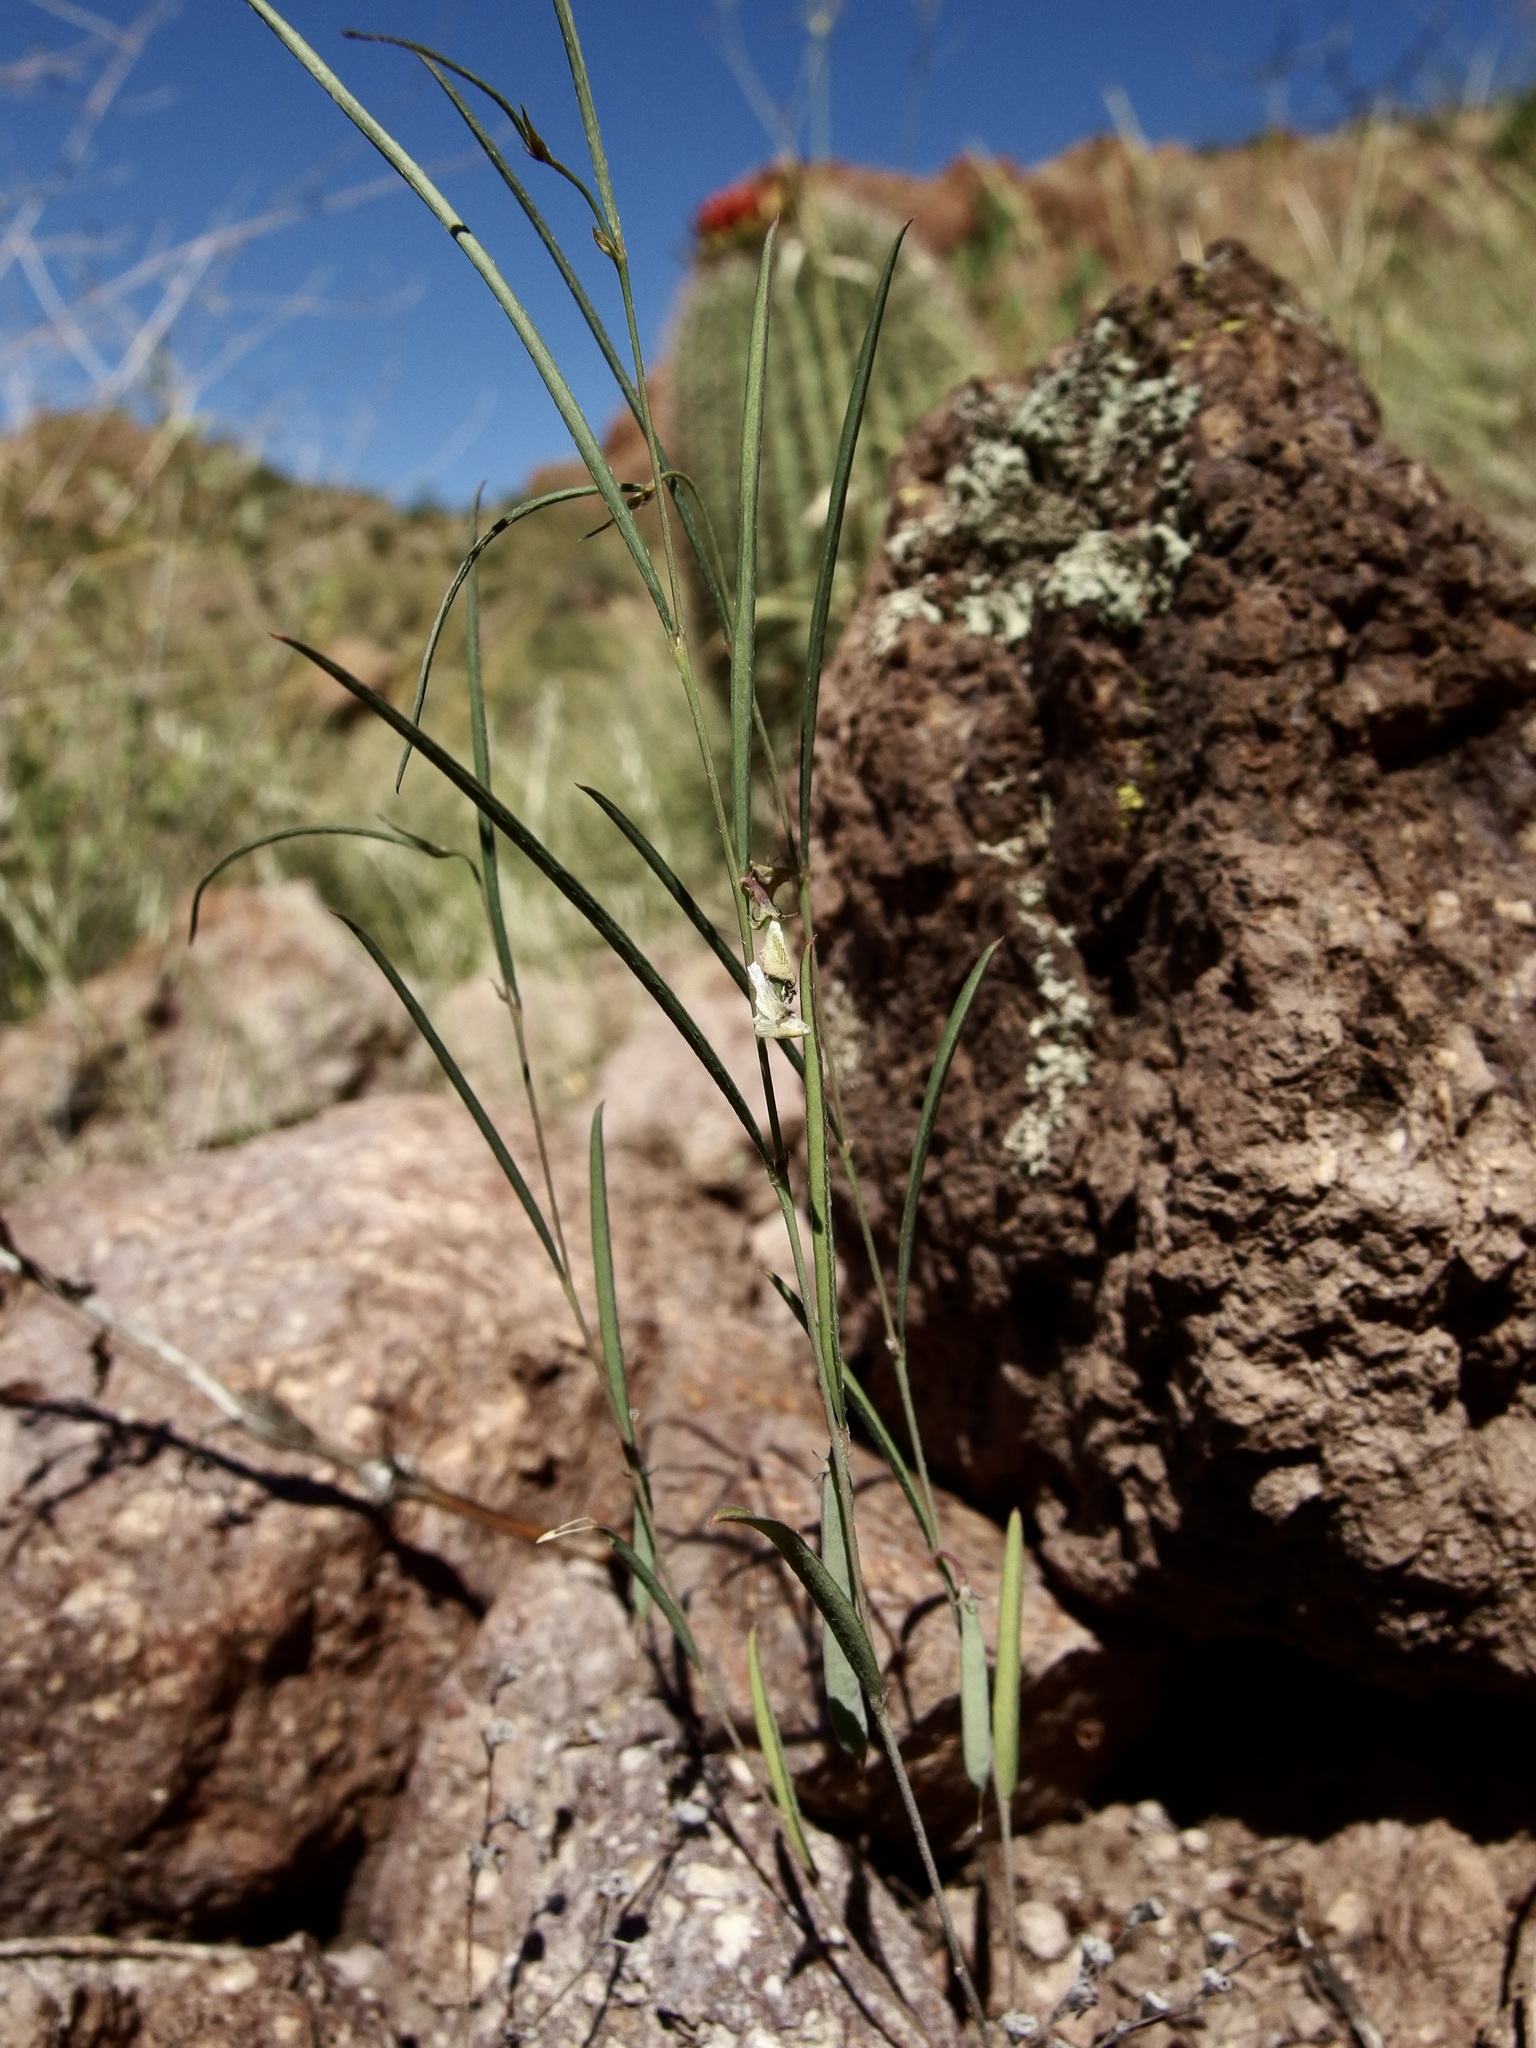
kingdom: Plantae
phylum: Tracheophyta
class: Magnoliopsida
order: Fabales
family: Fabaceae
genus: Sphinctospermum
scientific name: Sphinctospermum constrictum
